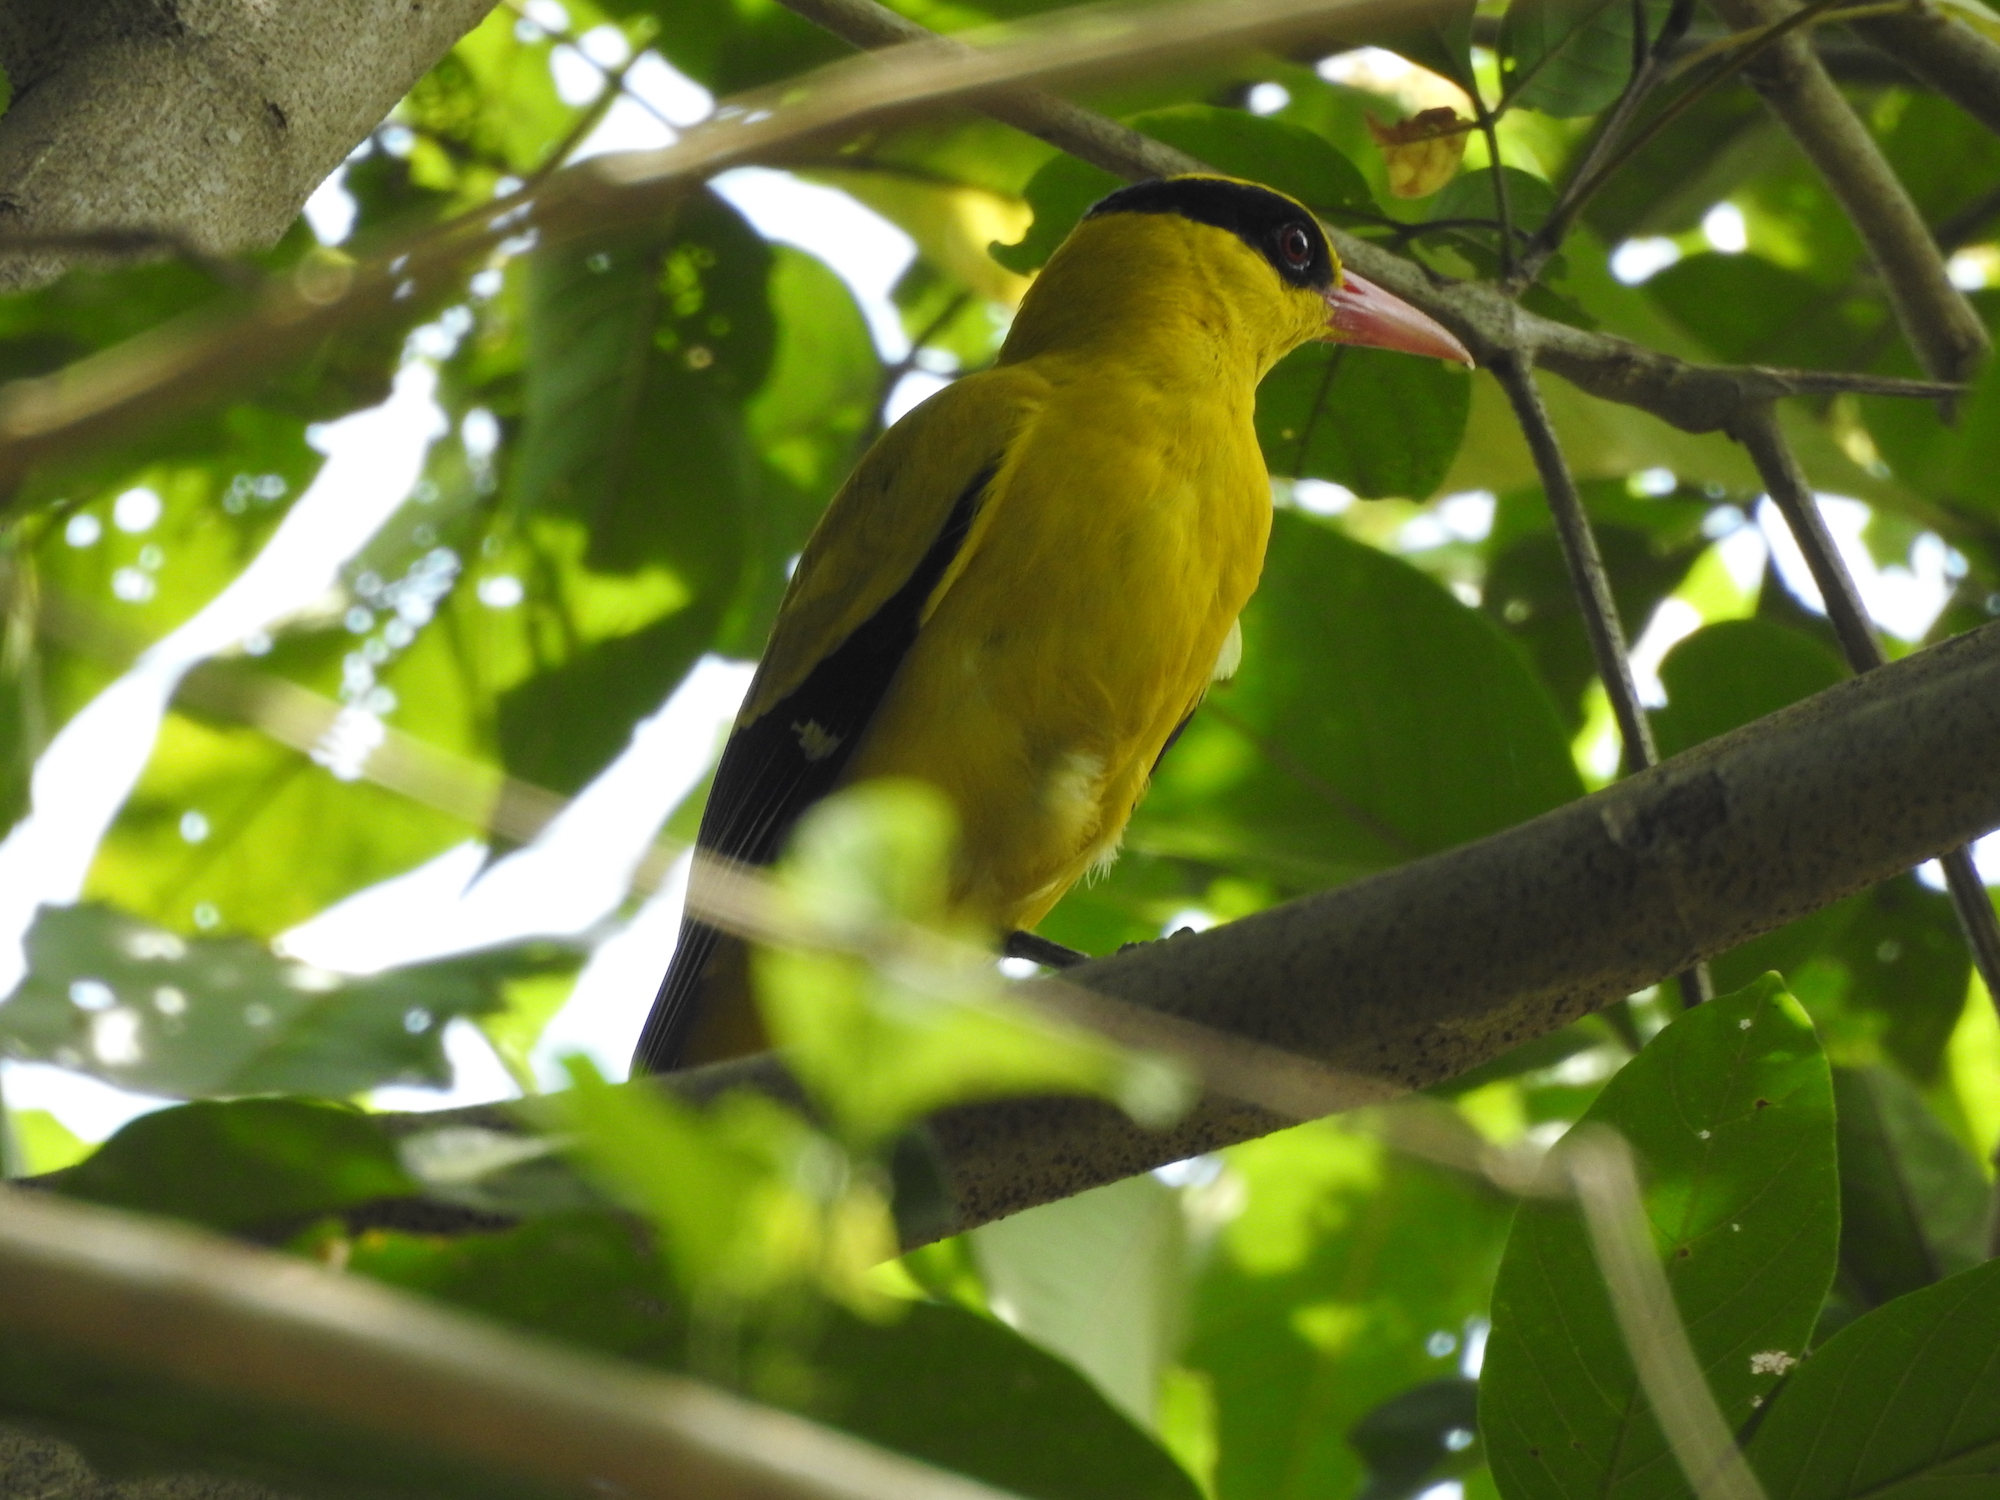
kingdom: Animalia
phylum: Chordata
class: Aves
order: Passeriformes
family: Oriolidae
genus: Oriolus
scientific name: Oriolus chinensis
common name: Black-naped oriole
